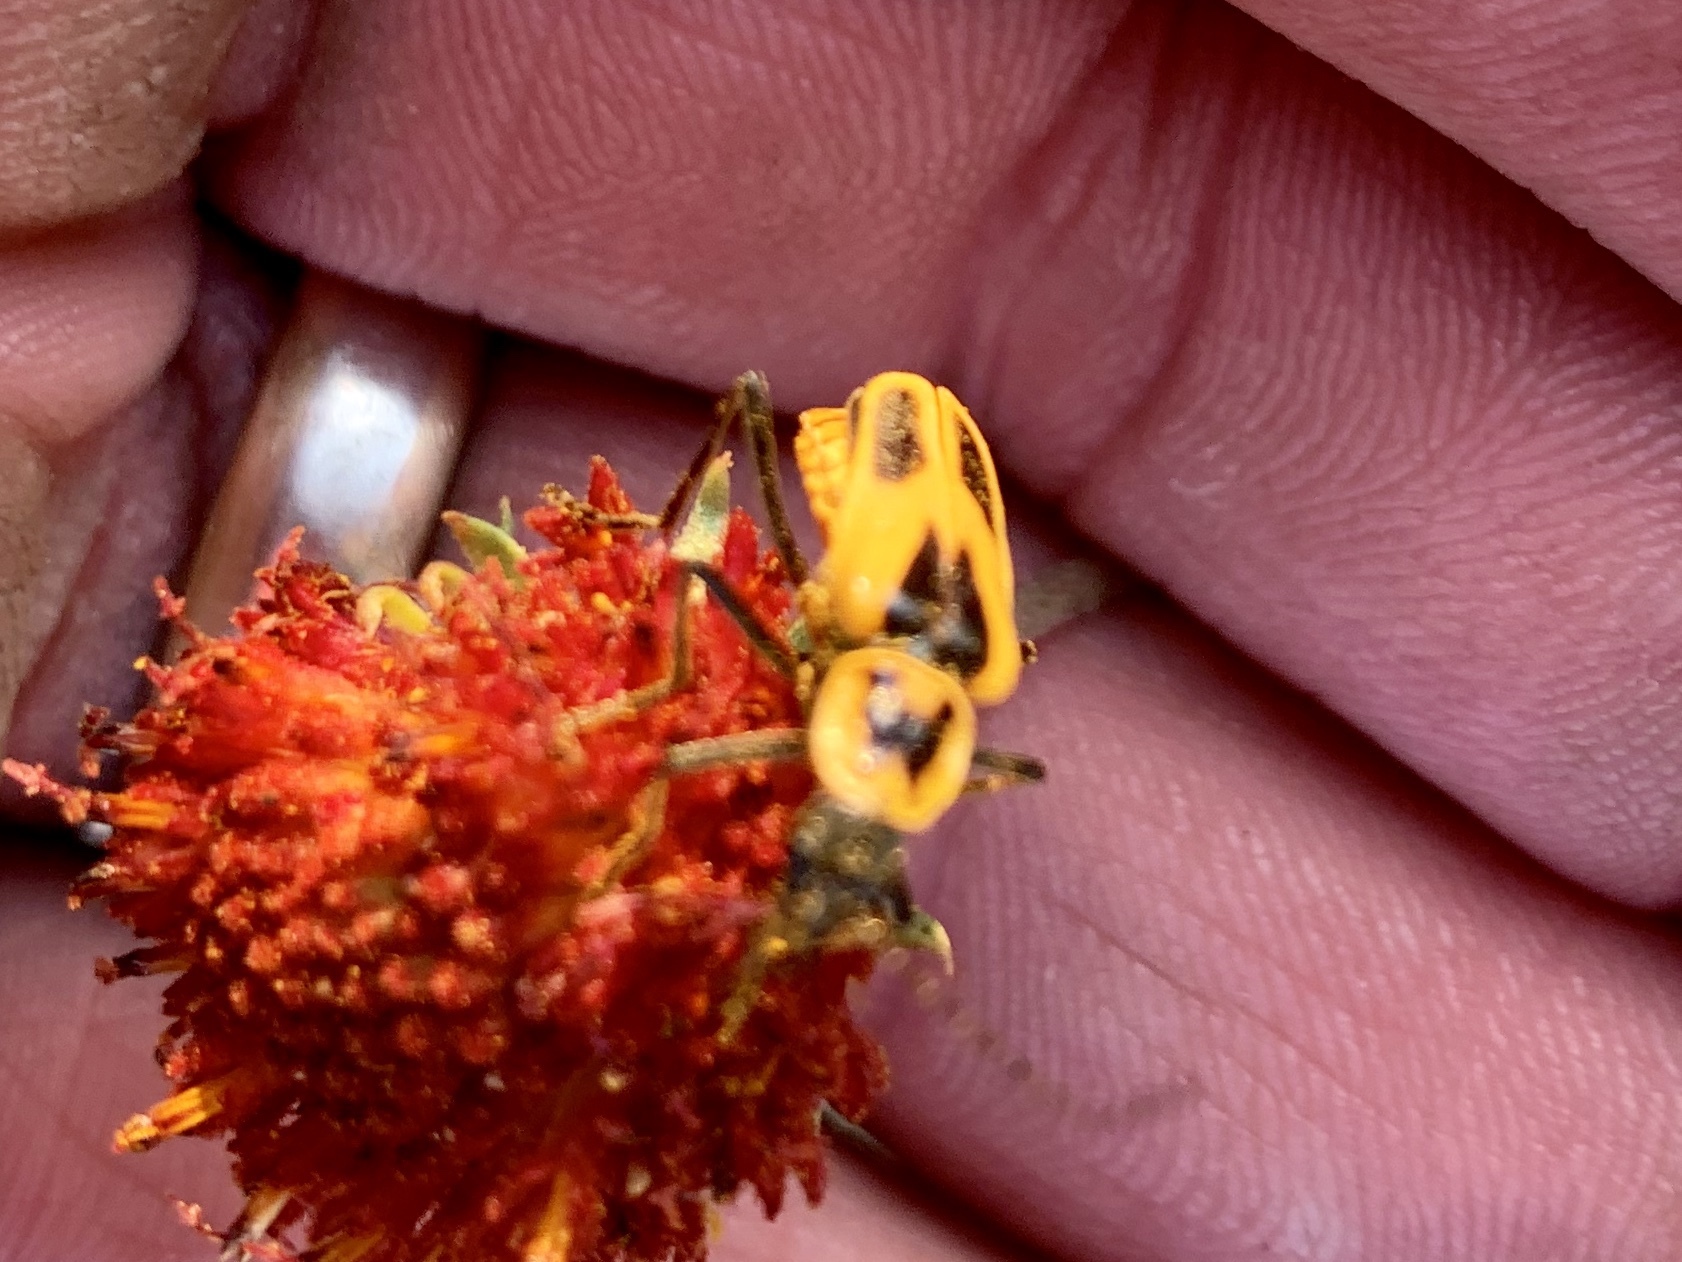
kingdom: Animalia
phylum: Arthropoda
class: Insecta
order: Coleoptera
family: Cantharidae
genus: Chauliognathus
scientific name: Chauliognathus scutellaris
